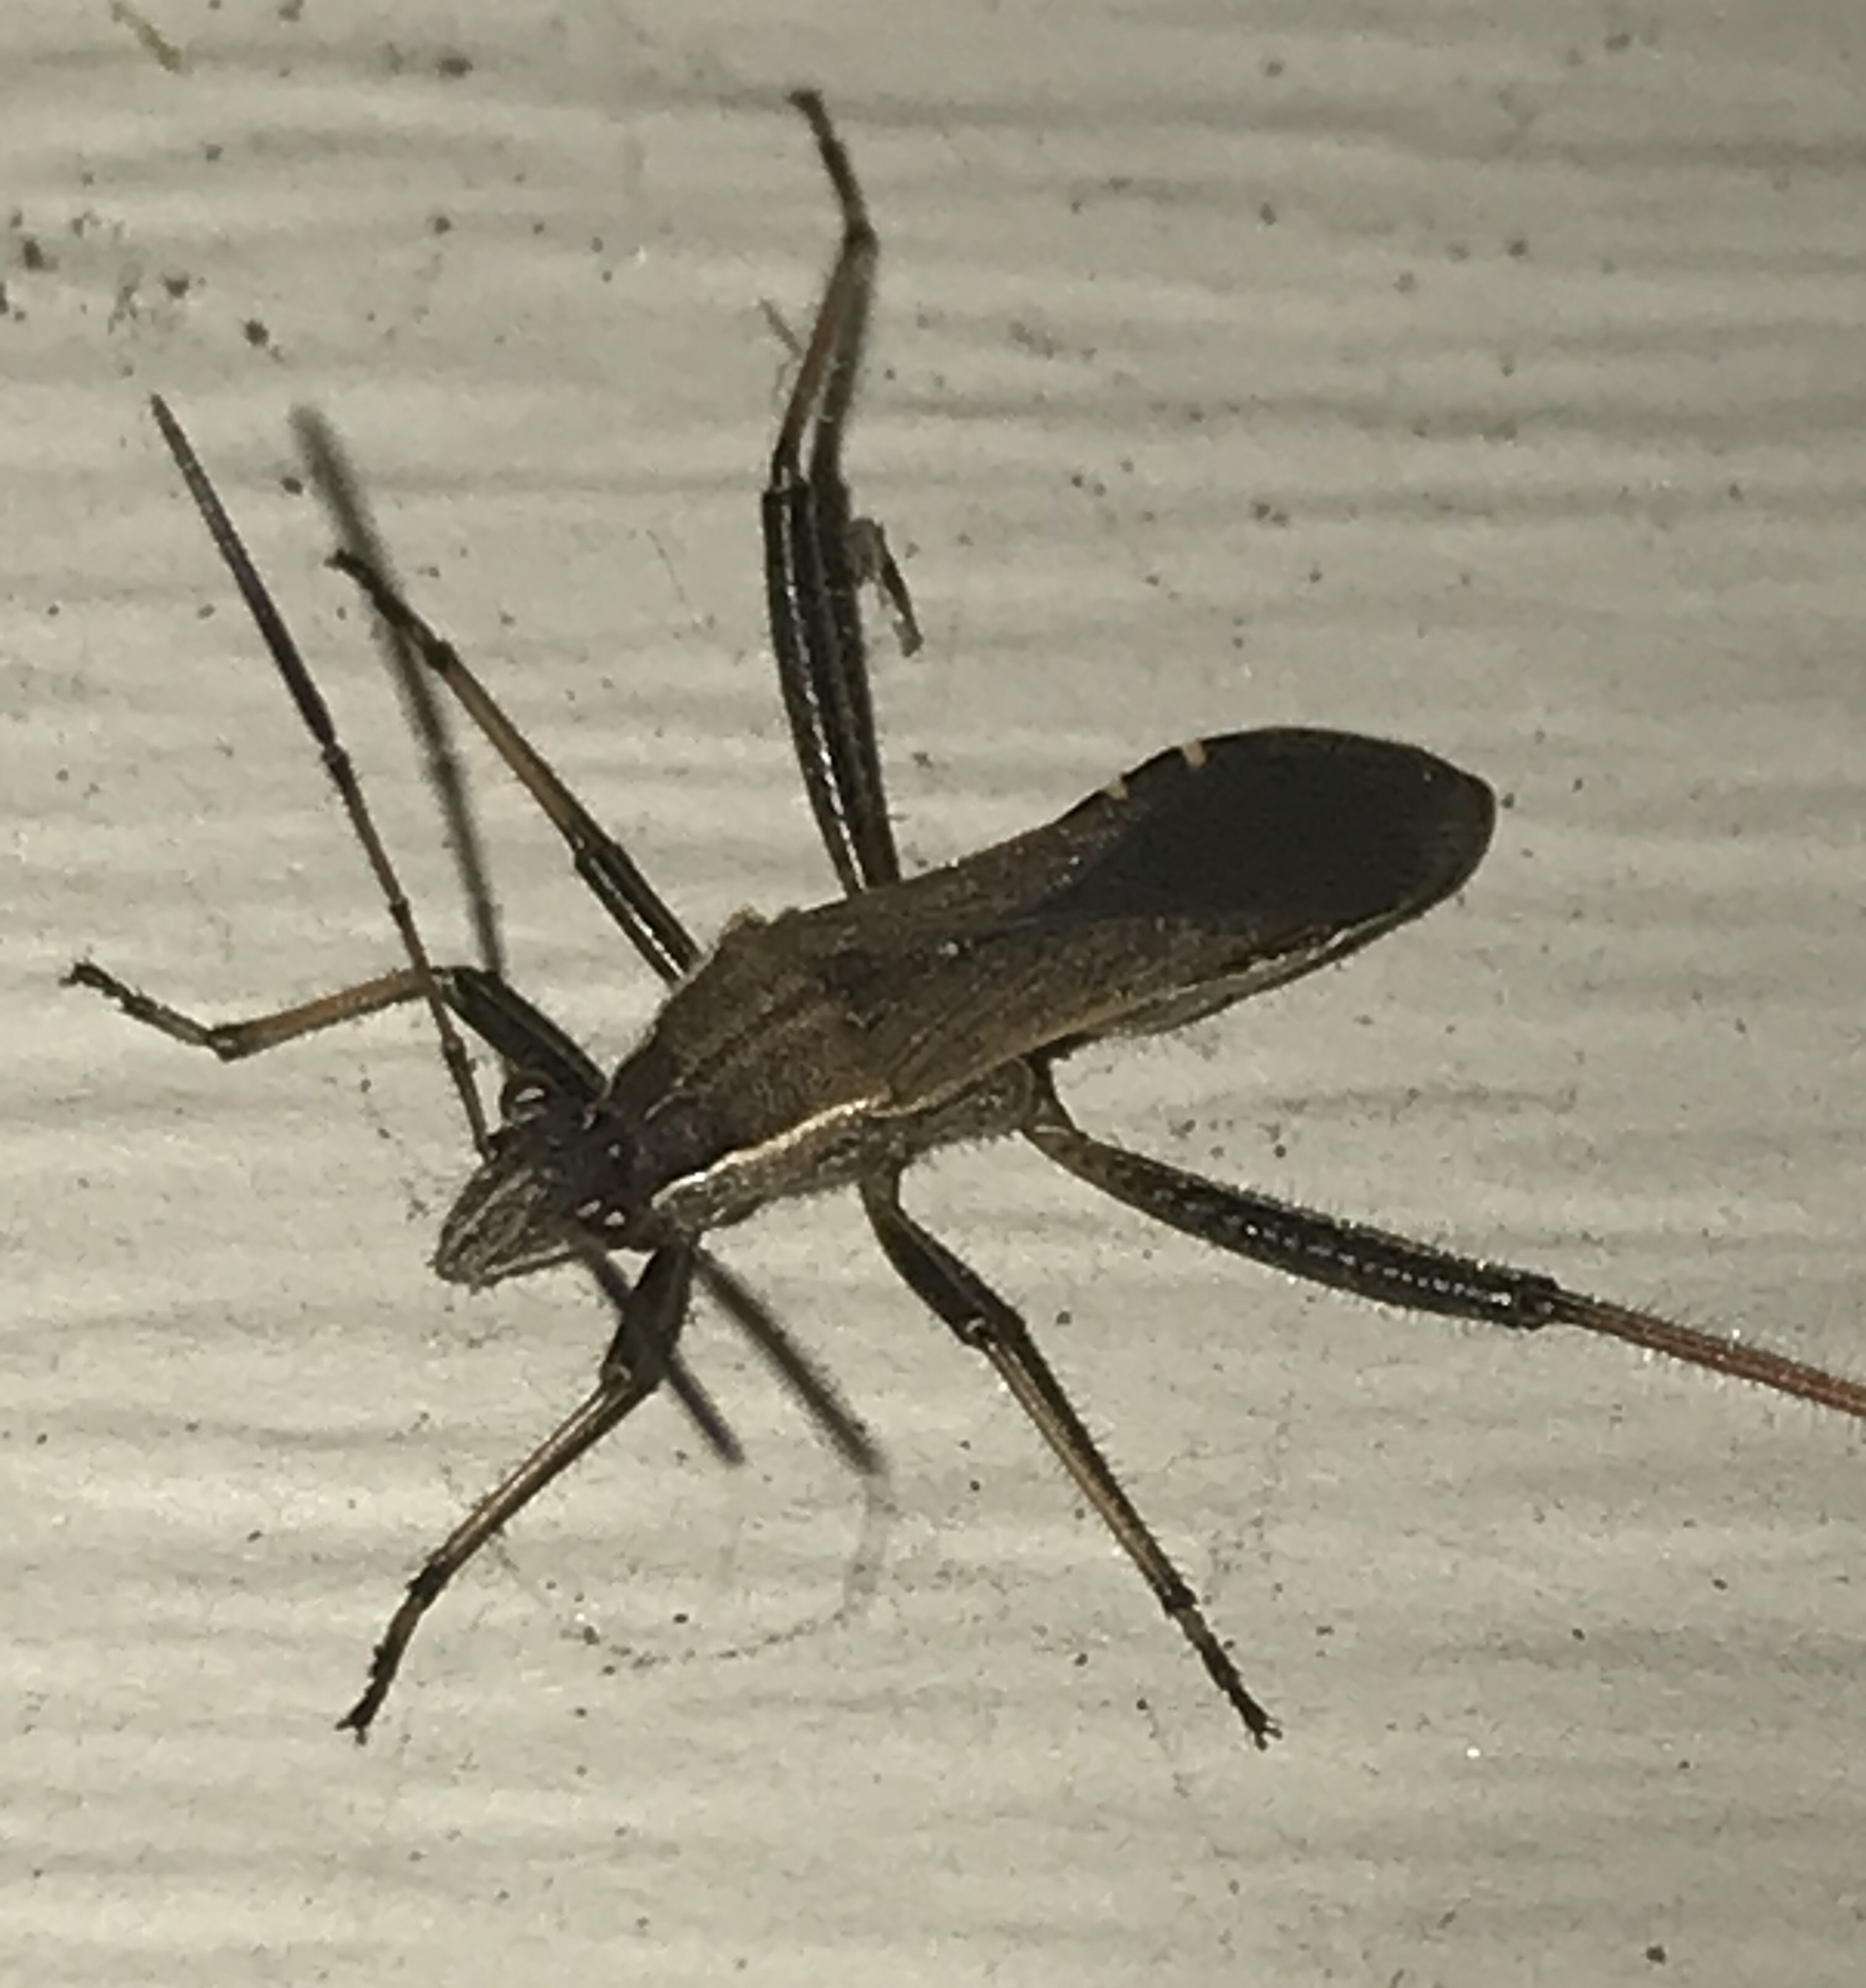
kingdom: Animalia
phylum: Arthropoda
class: Insecta
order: Hemiptera
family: Alydidae
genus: Alydus
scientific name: Alydus pilosulus
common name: Broad-headed bug
